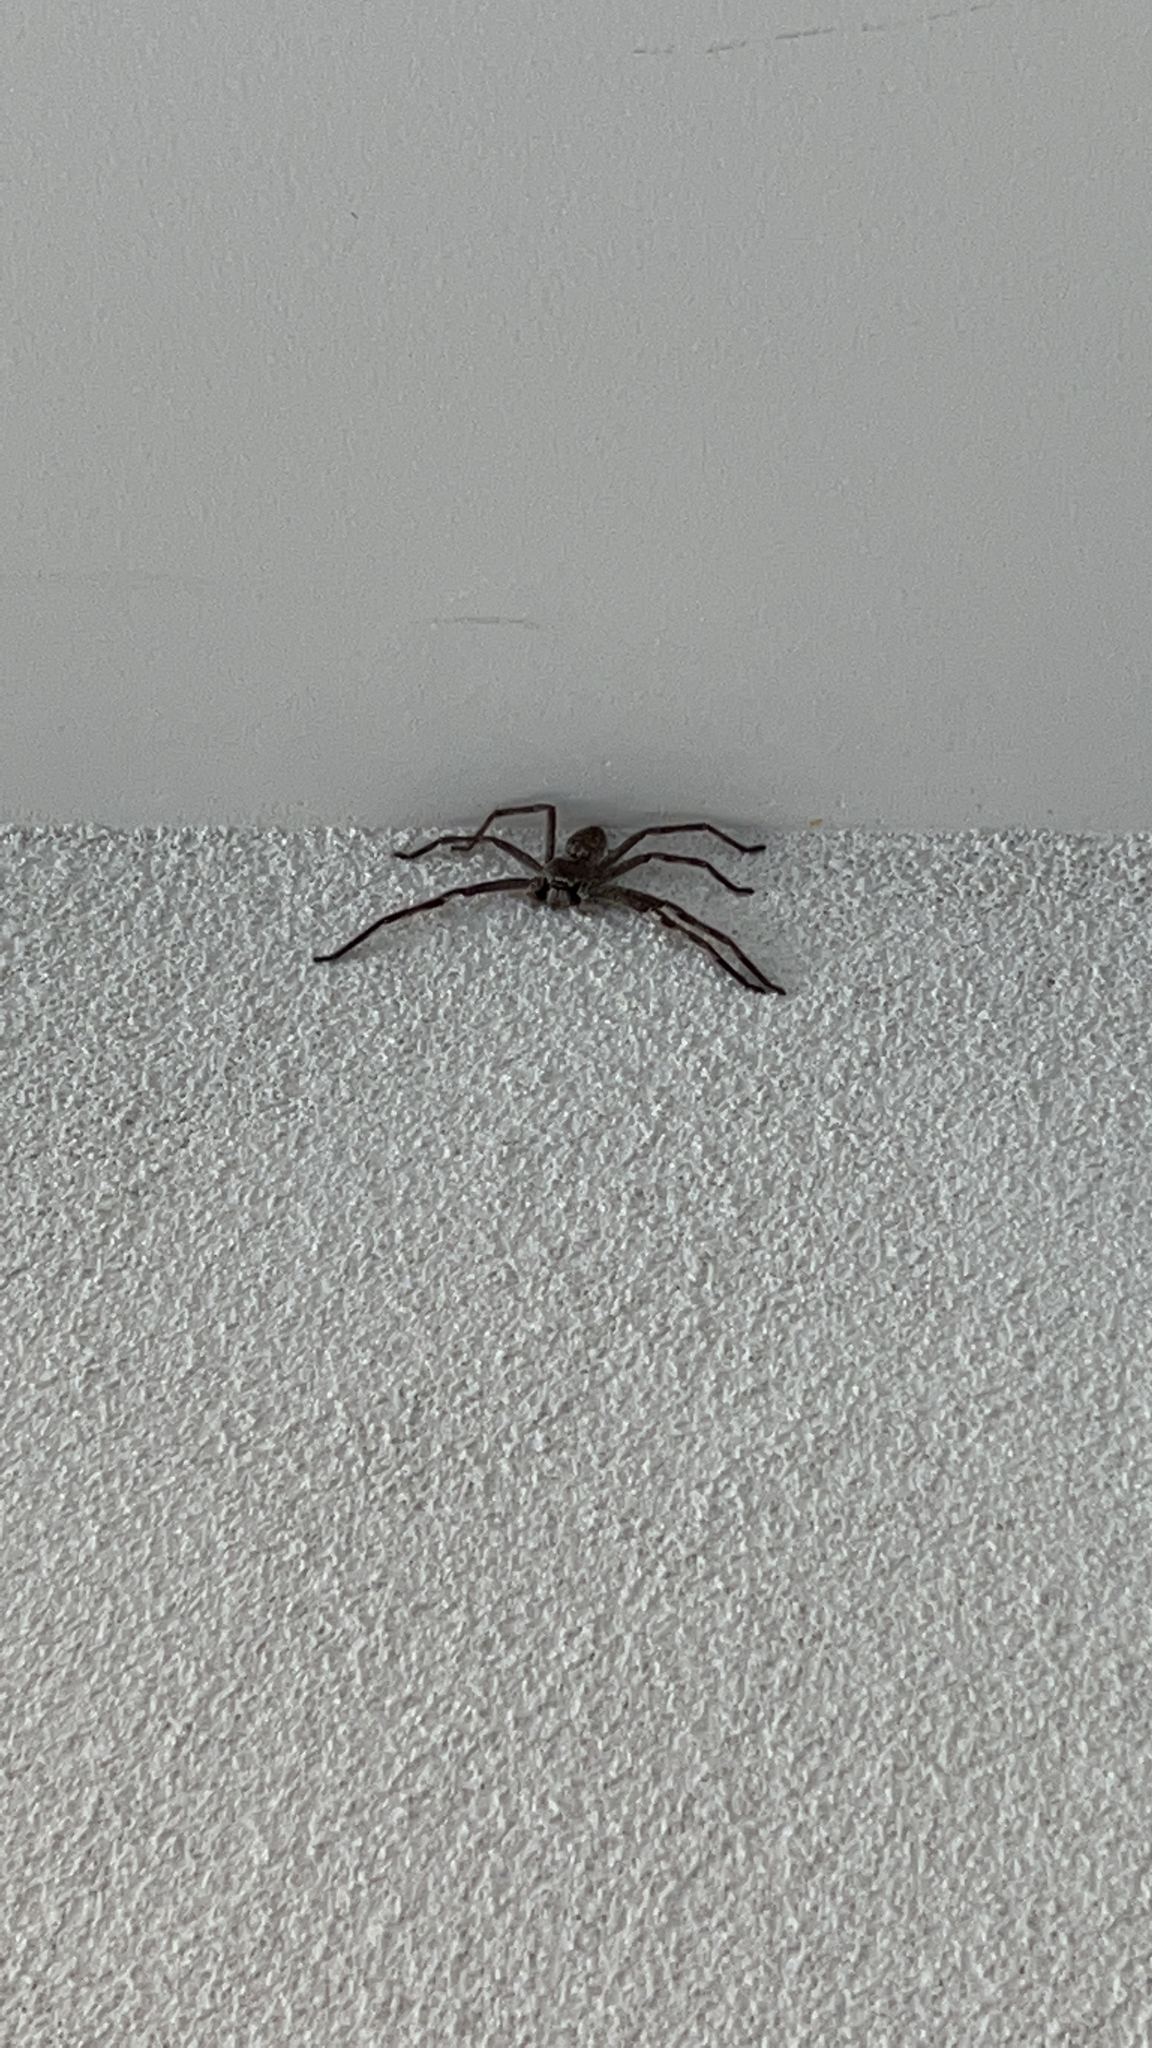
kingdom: Animalia
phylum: Arthropoda
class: Arachnida
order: Araneae
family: Sparassidae
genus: Isopedella
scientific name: Isopedella victorialis
